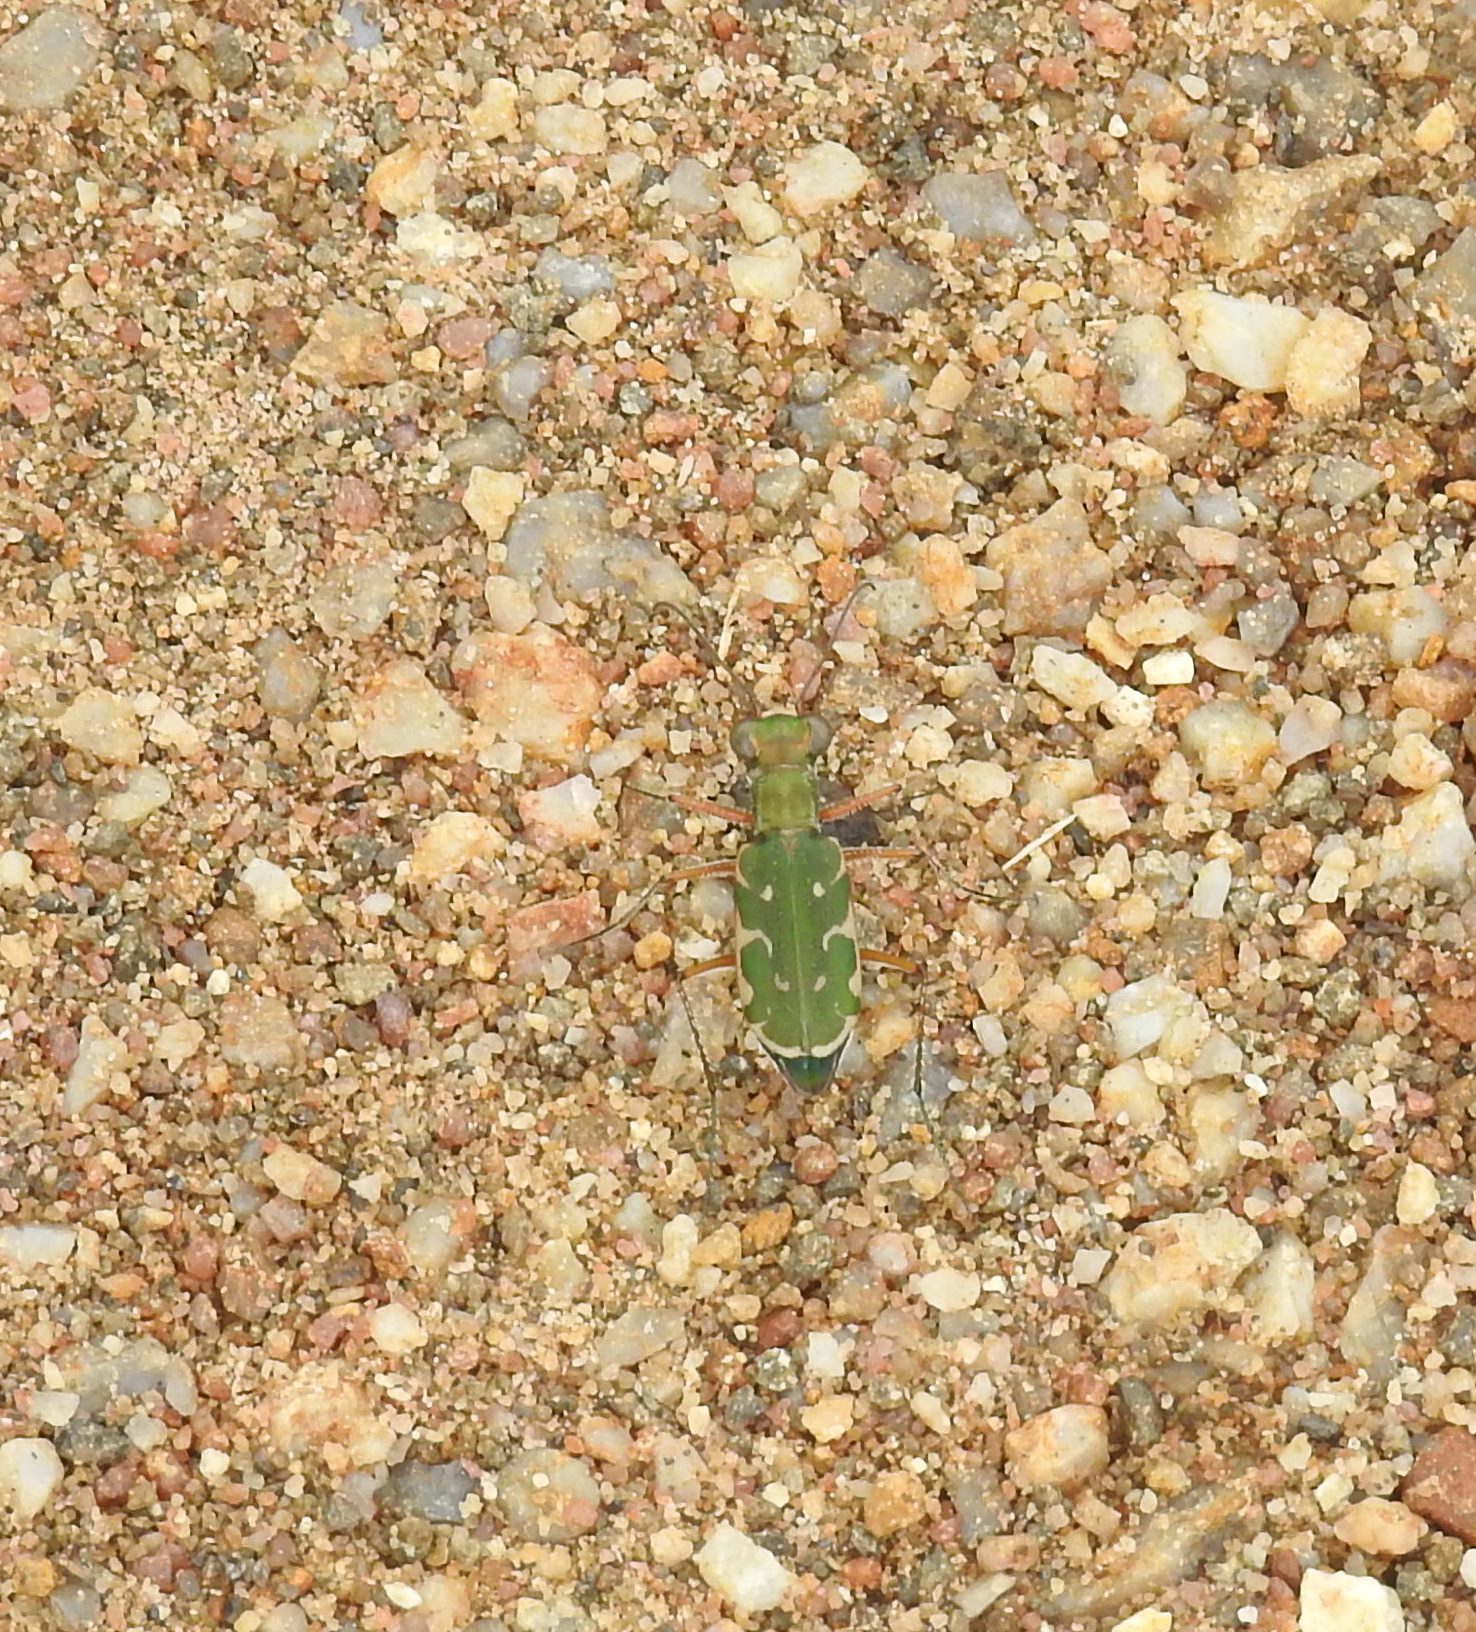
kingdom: Animalia
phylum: Arthropoda
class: Insecta
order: Coleoptera
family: Carabidae
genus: Myriochila
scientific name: Myriochila fastidiosa
